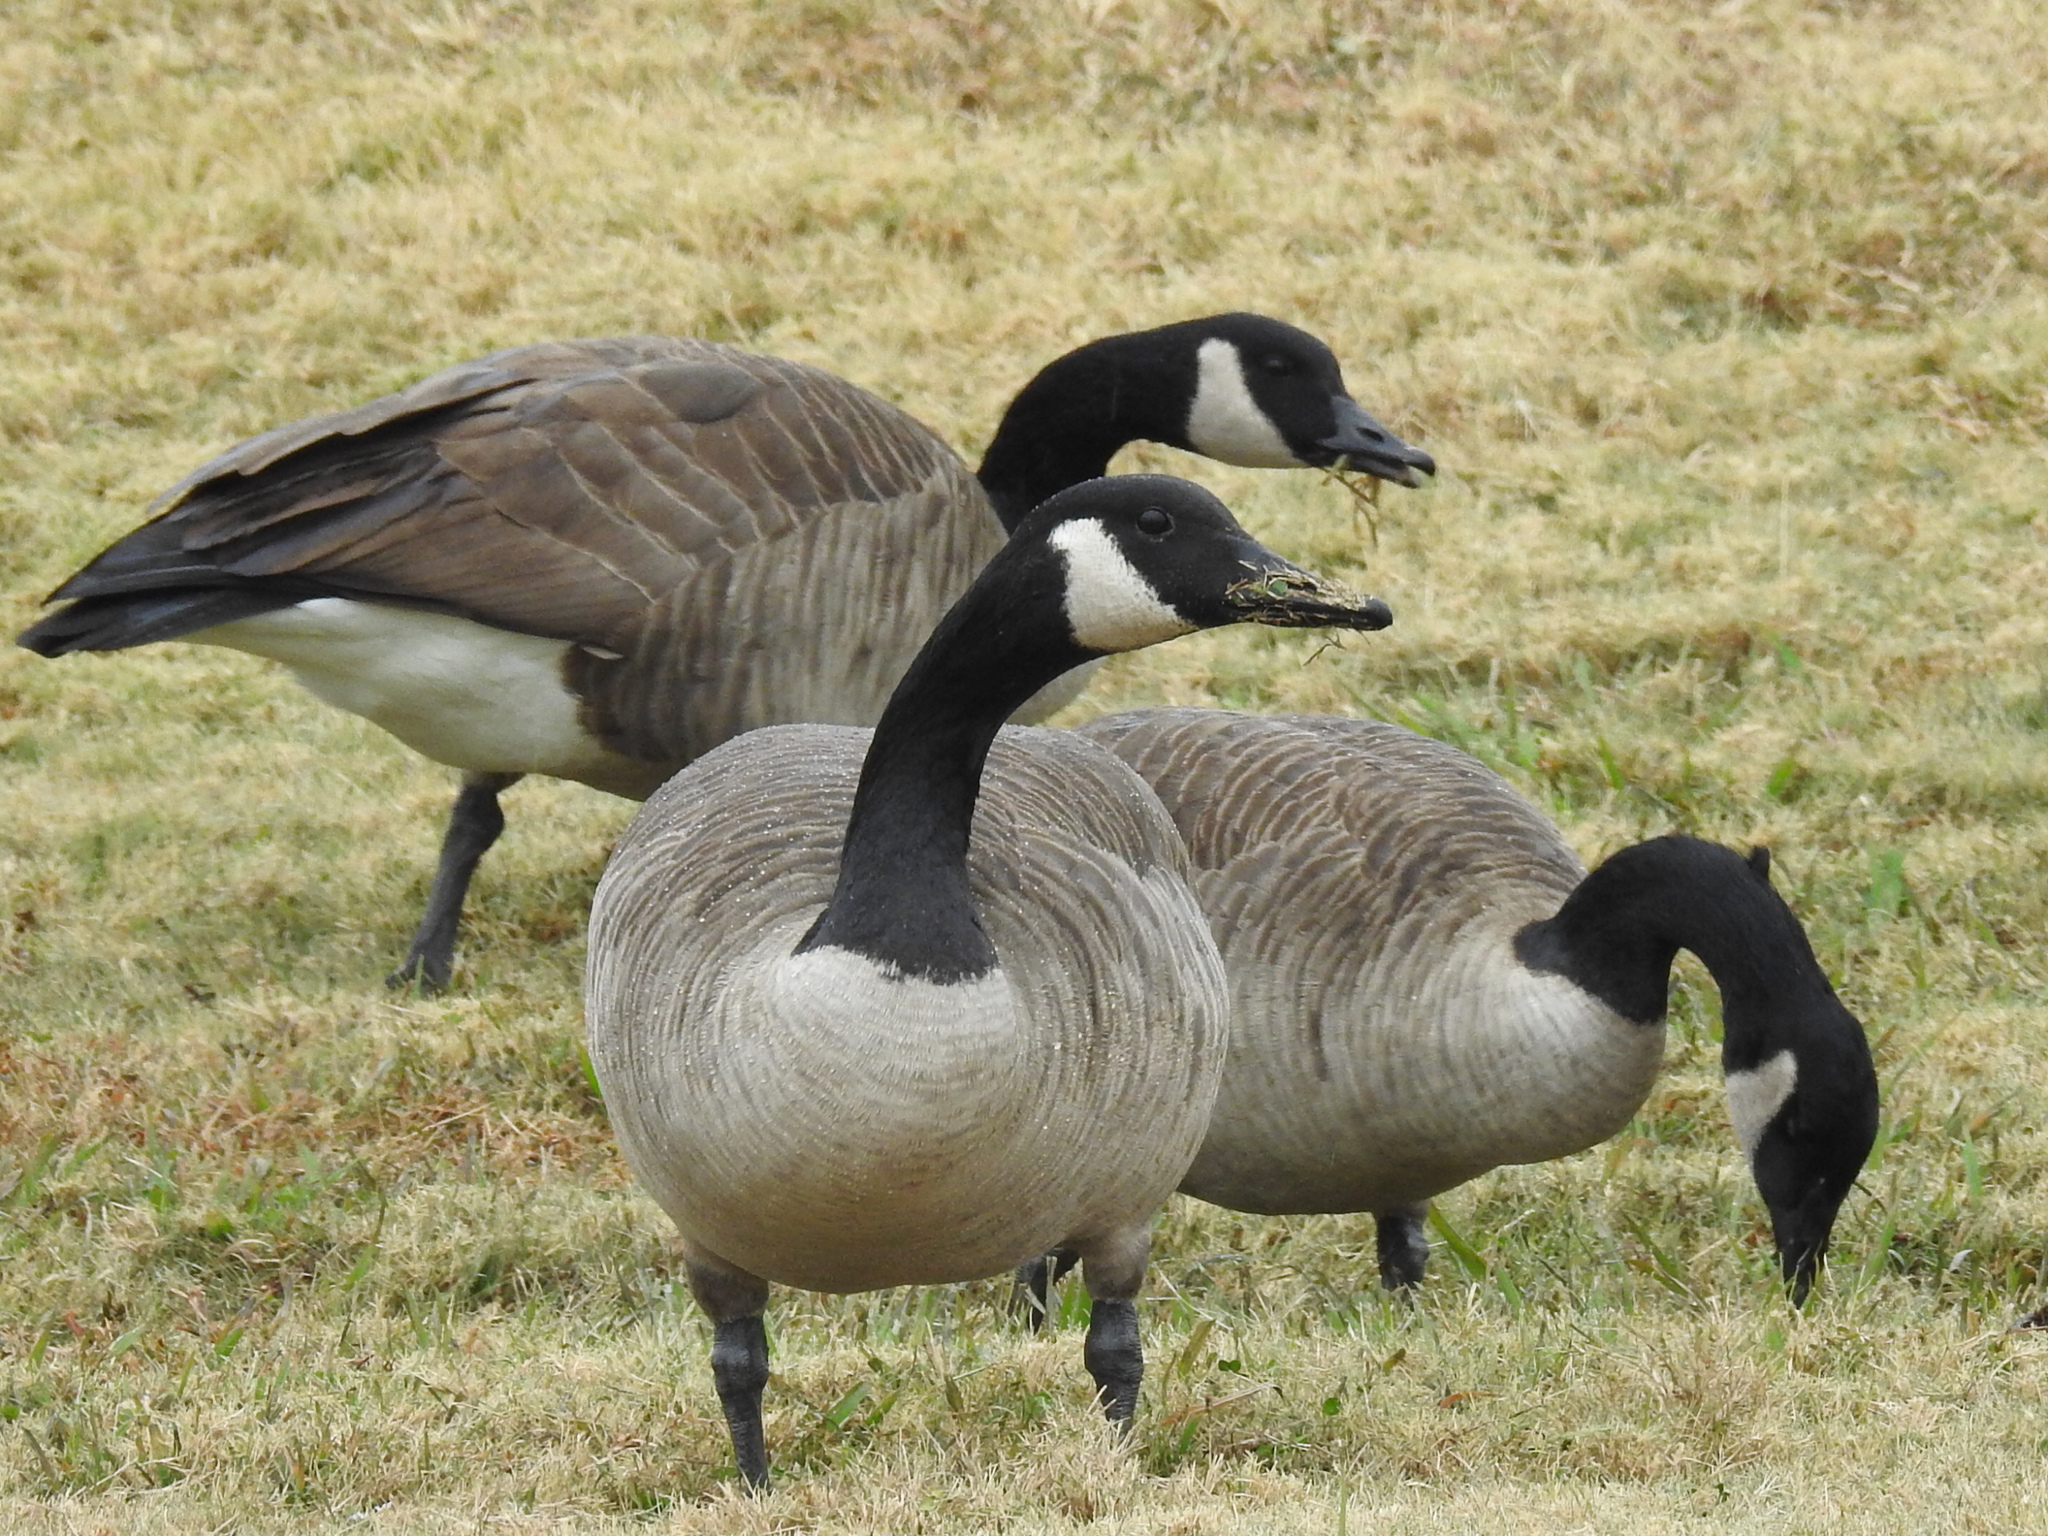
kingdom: Animalia
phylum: Chordata
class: Aves
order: Anseriformes
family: Anatidae
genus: Branta
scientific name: Branta canadensis
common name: Canada goose
